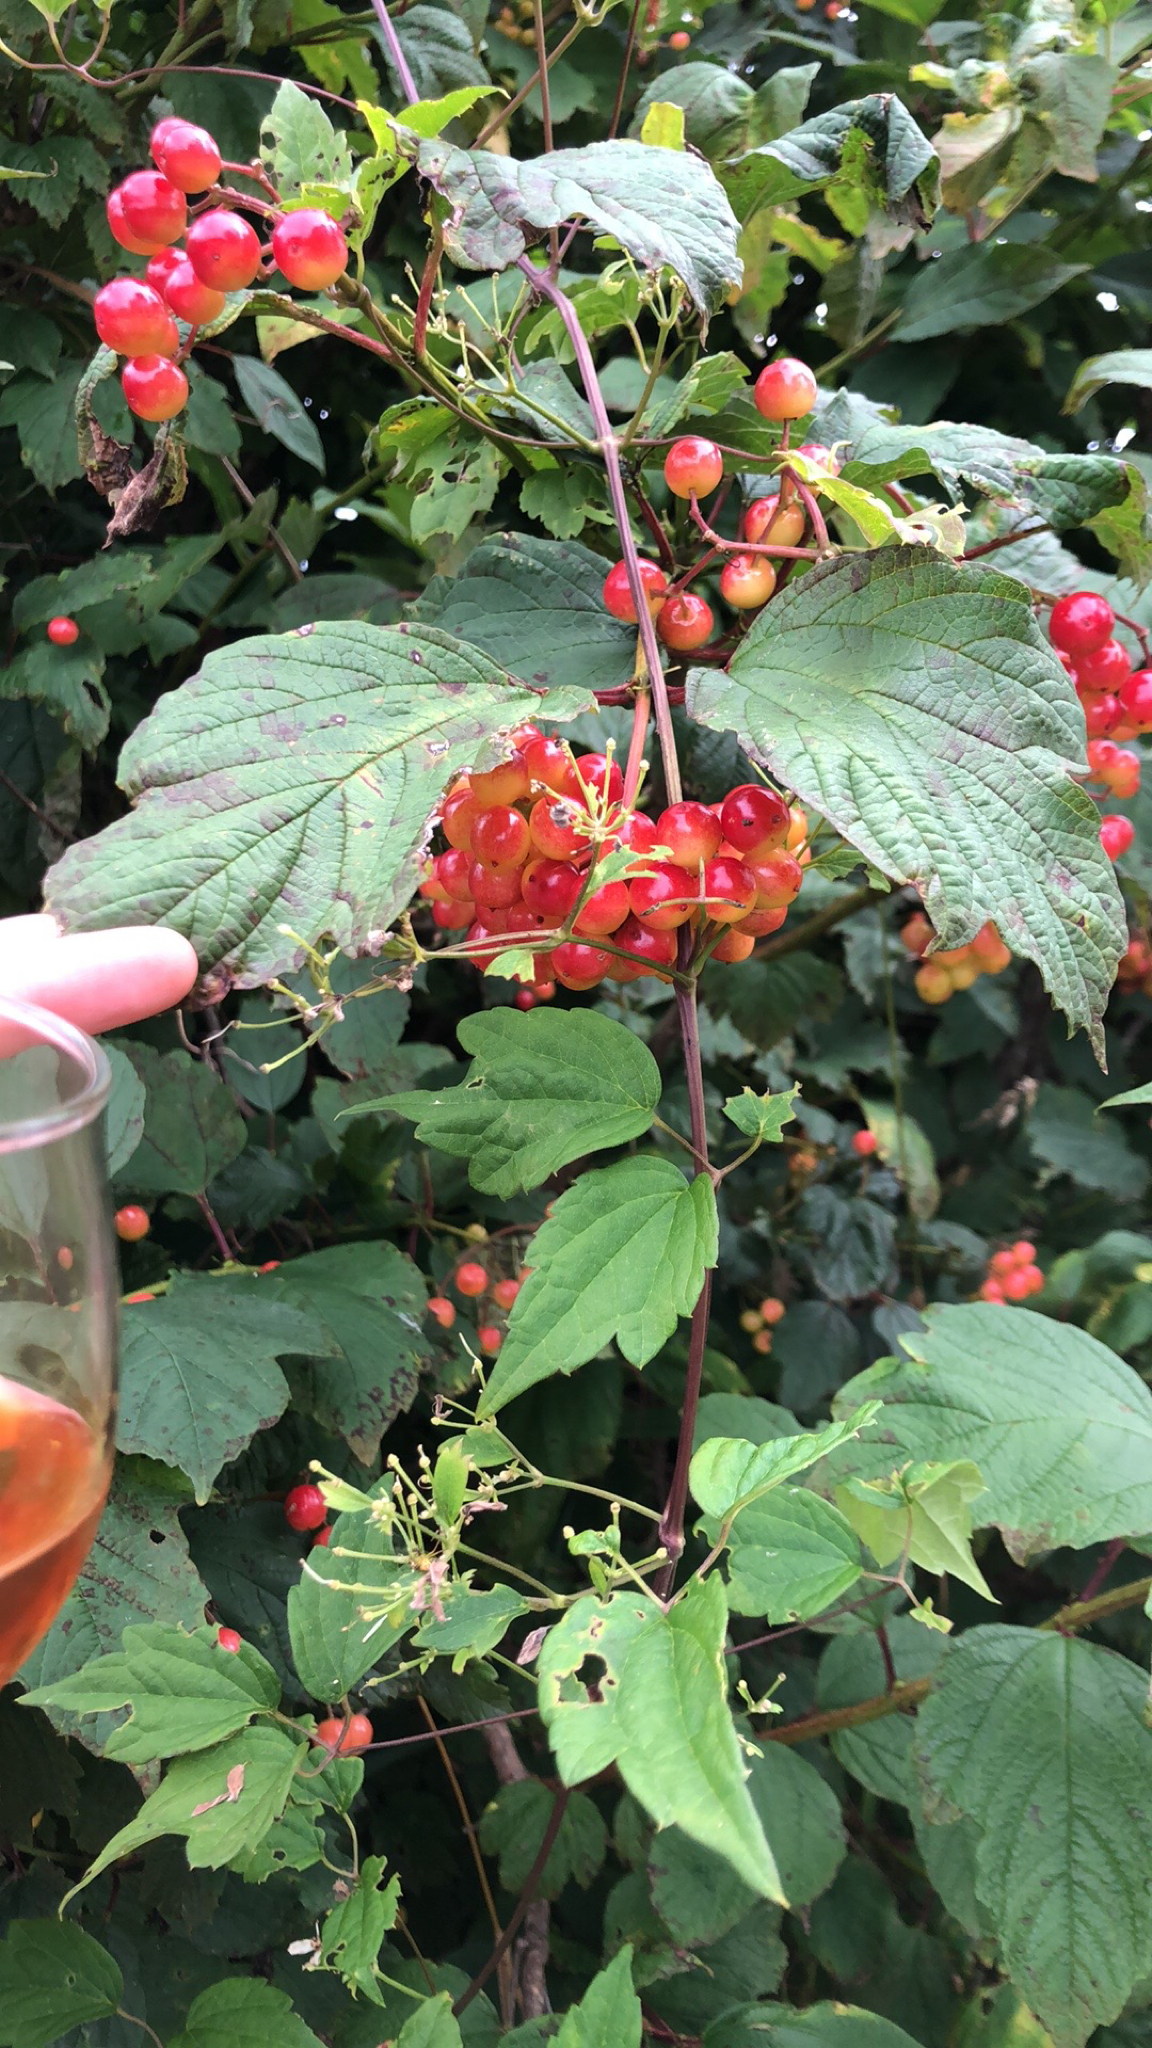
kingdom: Plantae
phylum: Tracheophyta
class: Magnoliopsida
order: Dipsacales
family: Viburnaceae
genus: Viburnum
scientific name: Viburnum opulus
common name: Guelder-rose
